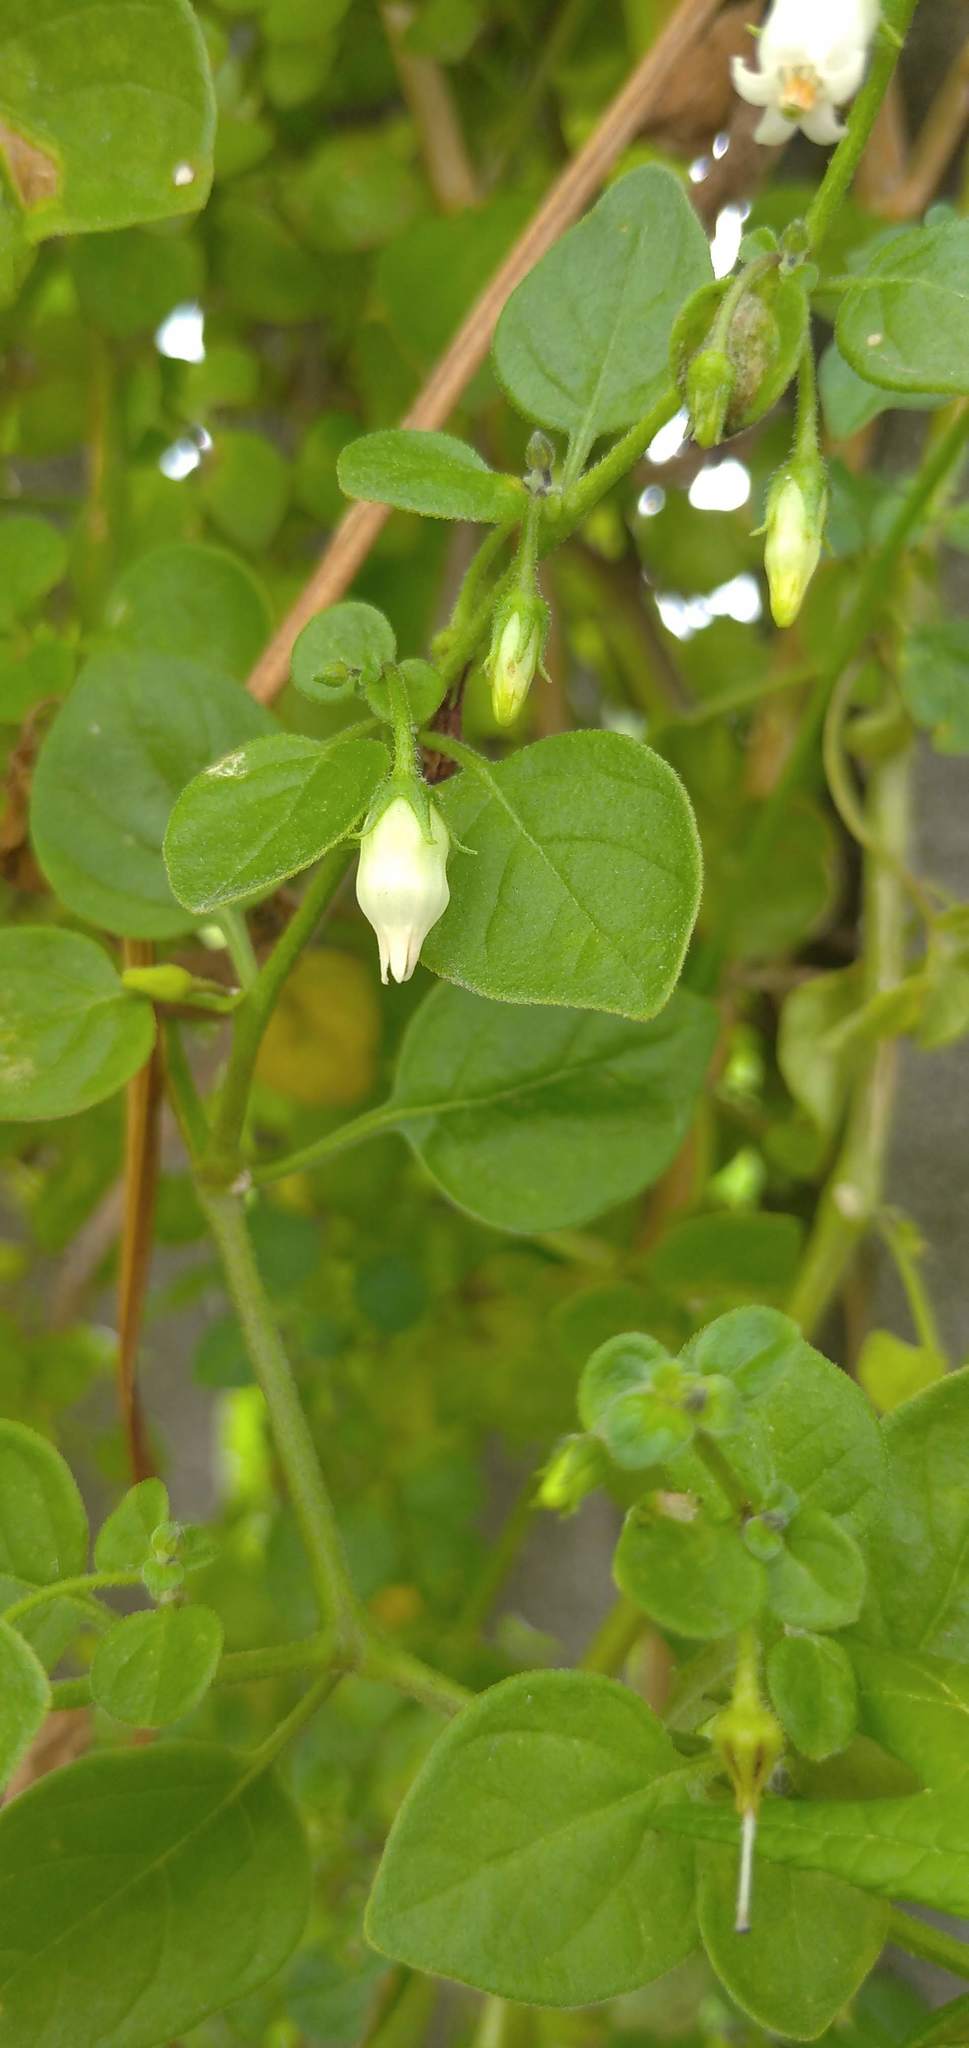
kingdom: Plantae
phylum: Tracheophyta
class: Magnoliopsida
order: Solanales
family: Solanaceae
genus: Salpichroa
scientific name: Salpichroa origanifolia
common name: Lily-of-the-valley-vine
